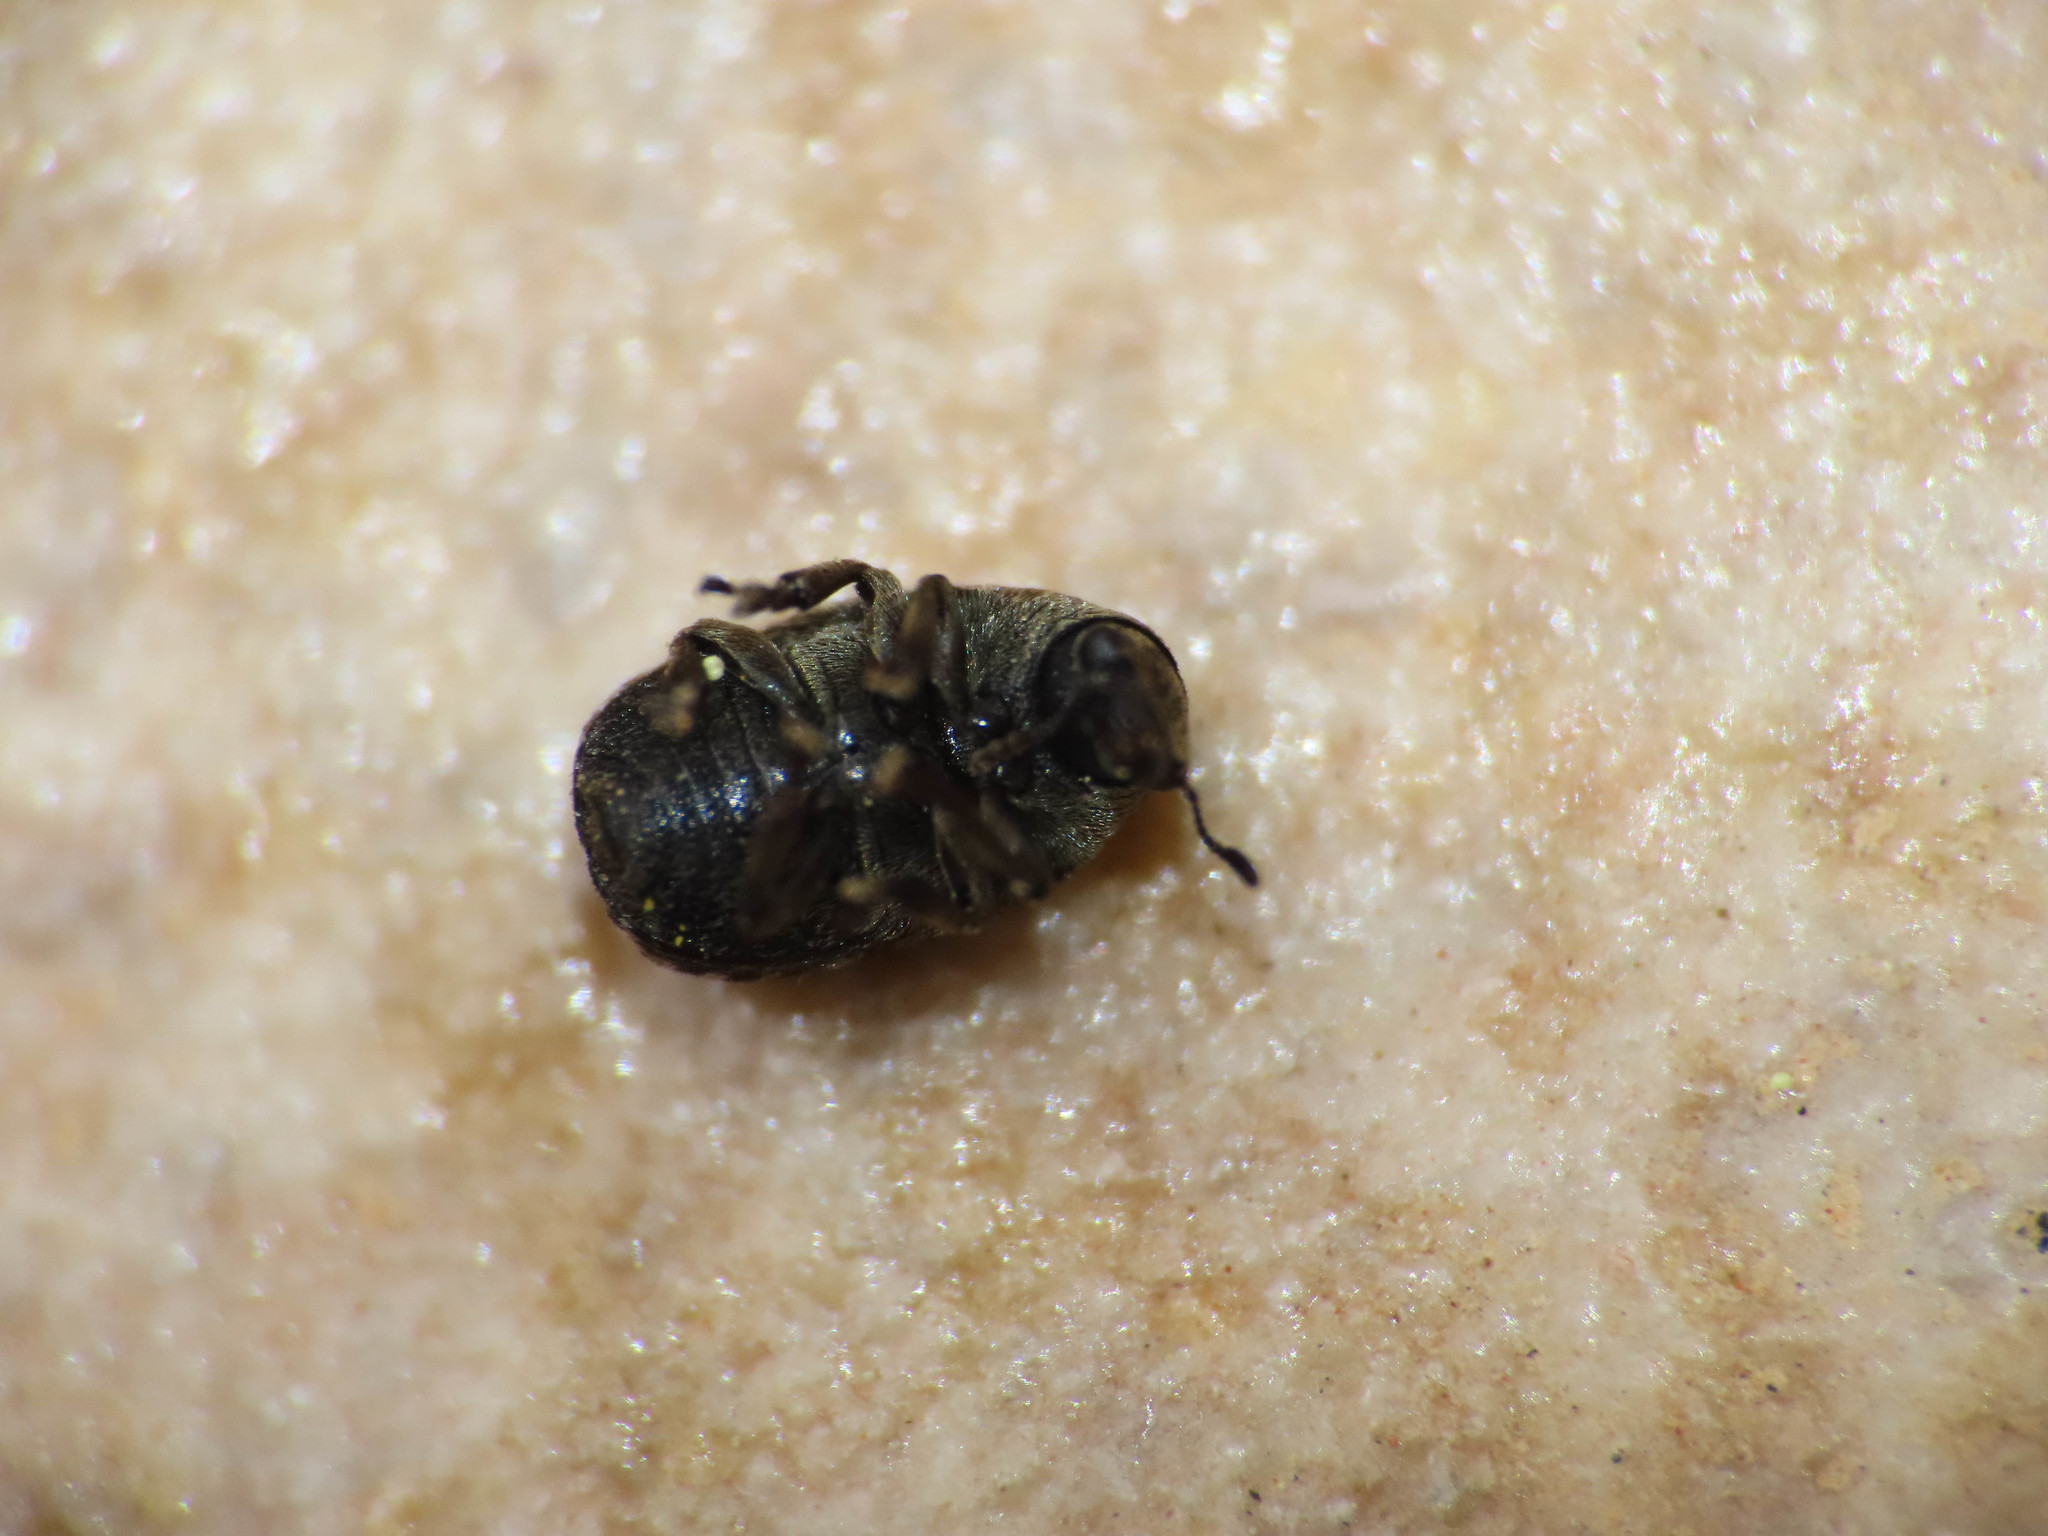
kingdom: Animalia
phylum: Arthropoda
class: Insecta
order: Coleoptera
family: Anthribidae
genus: Anthribus
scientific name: Anthribus nebulosus
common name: Fungus weevil
